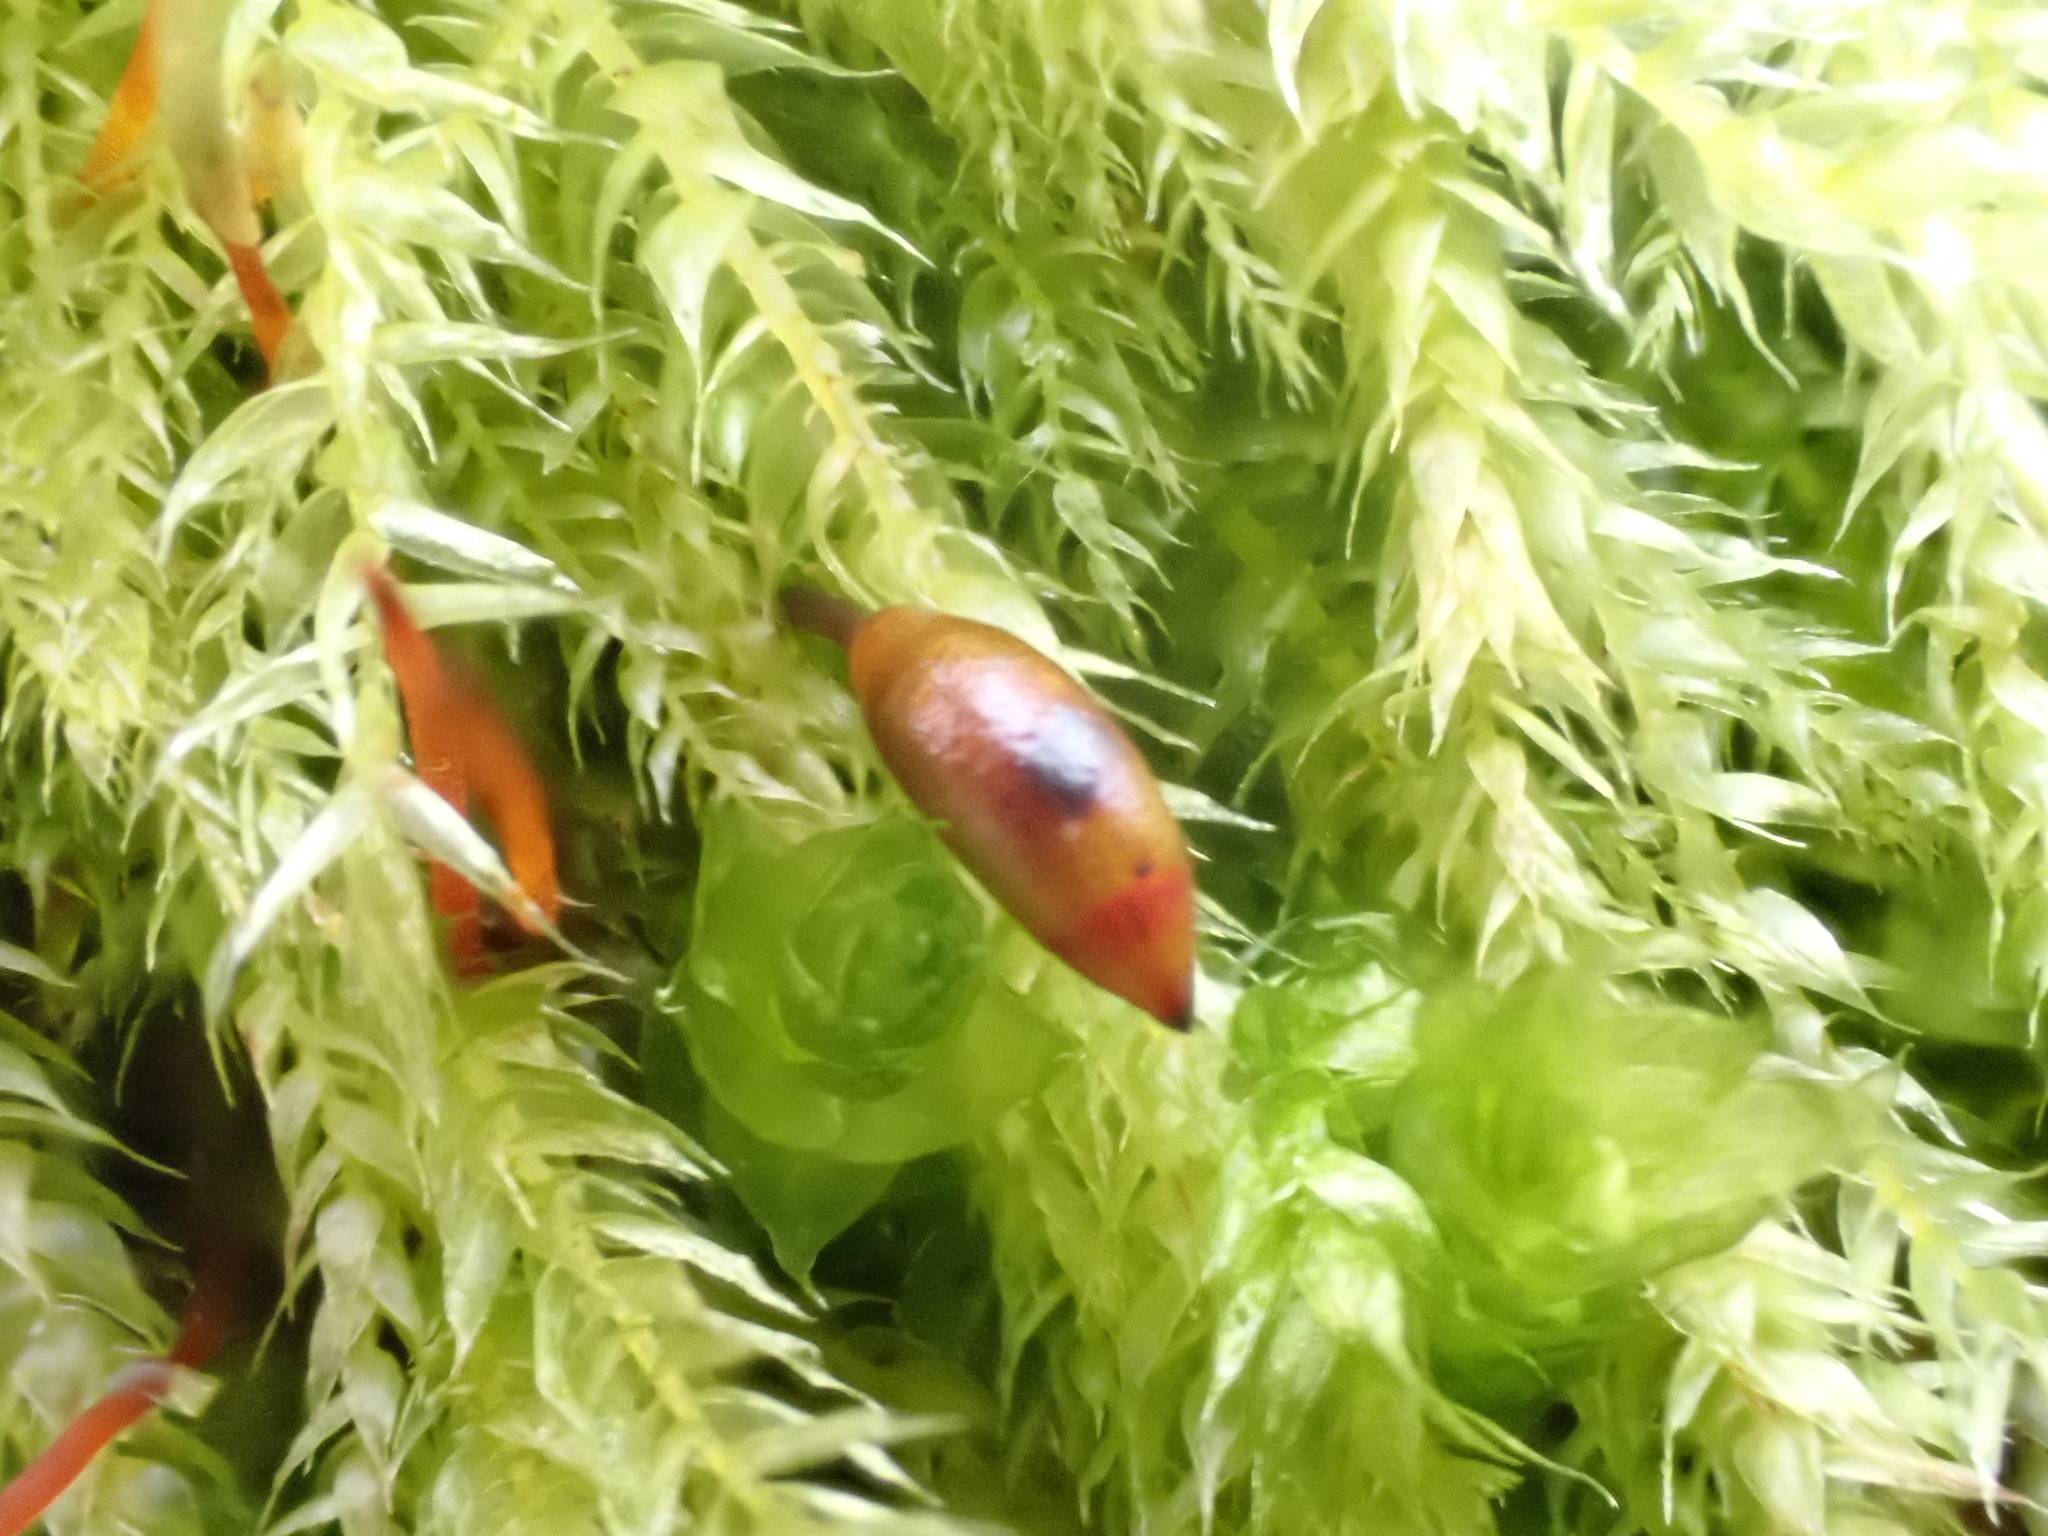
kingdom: Plantae
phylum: Bryophyta
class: Bryopsida
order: Hypnales
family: Brachytheciaceae
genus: Brachythecium
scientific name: Brachythecium rutabulum
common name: Rough-stalked feather-moss
